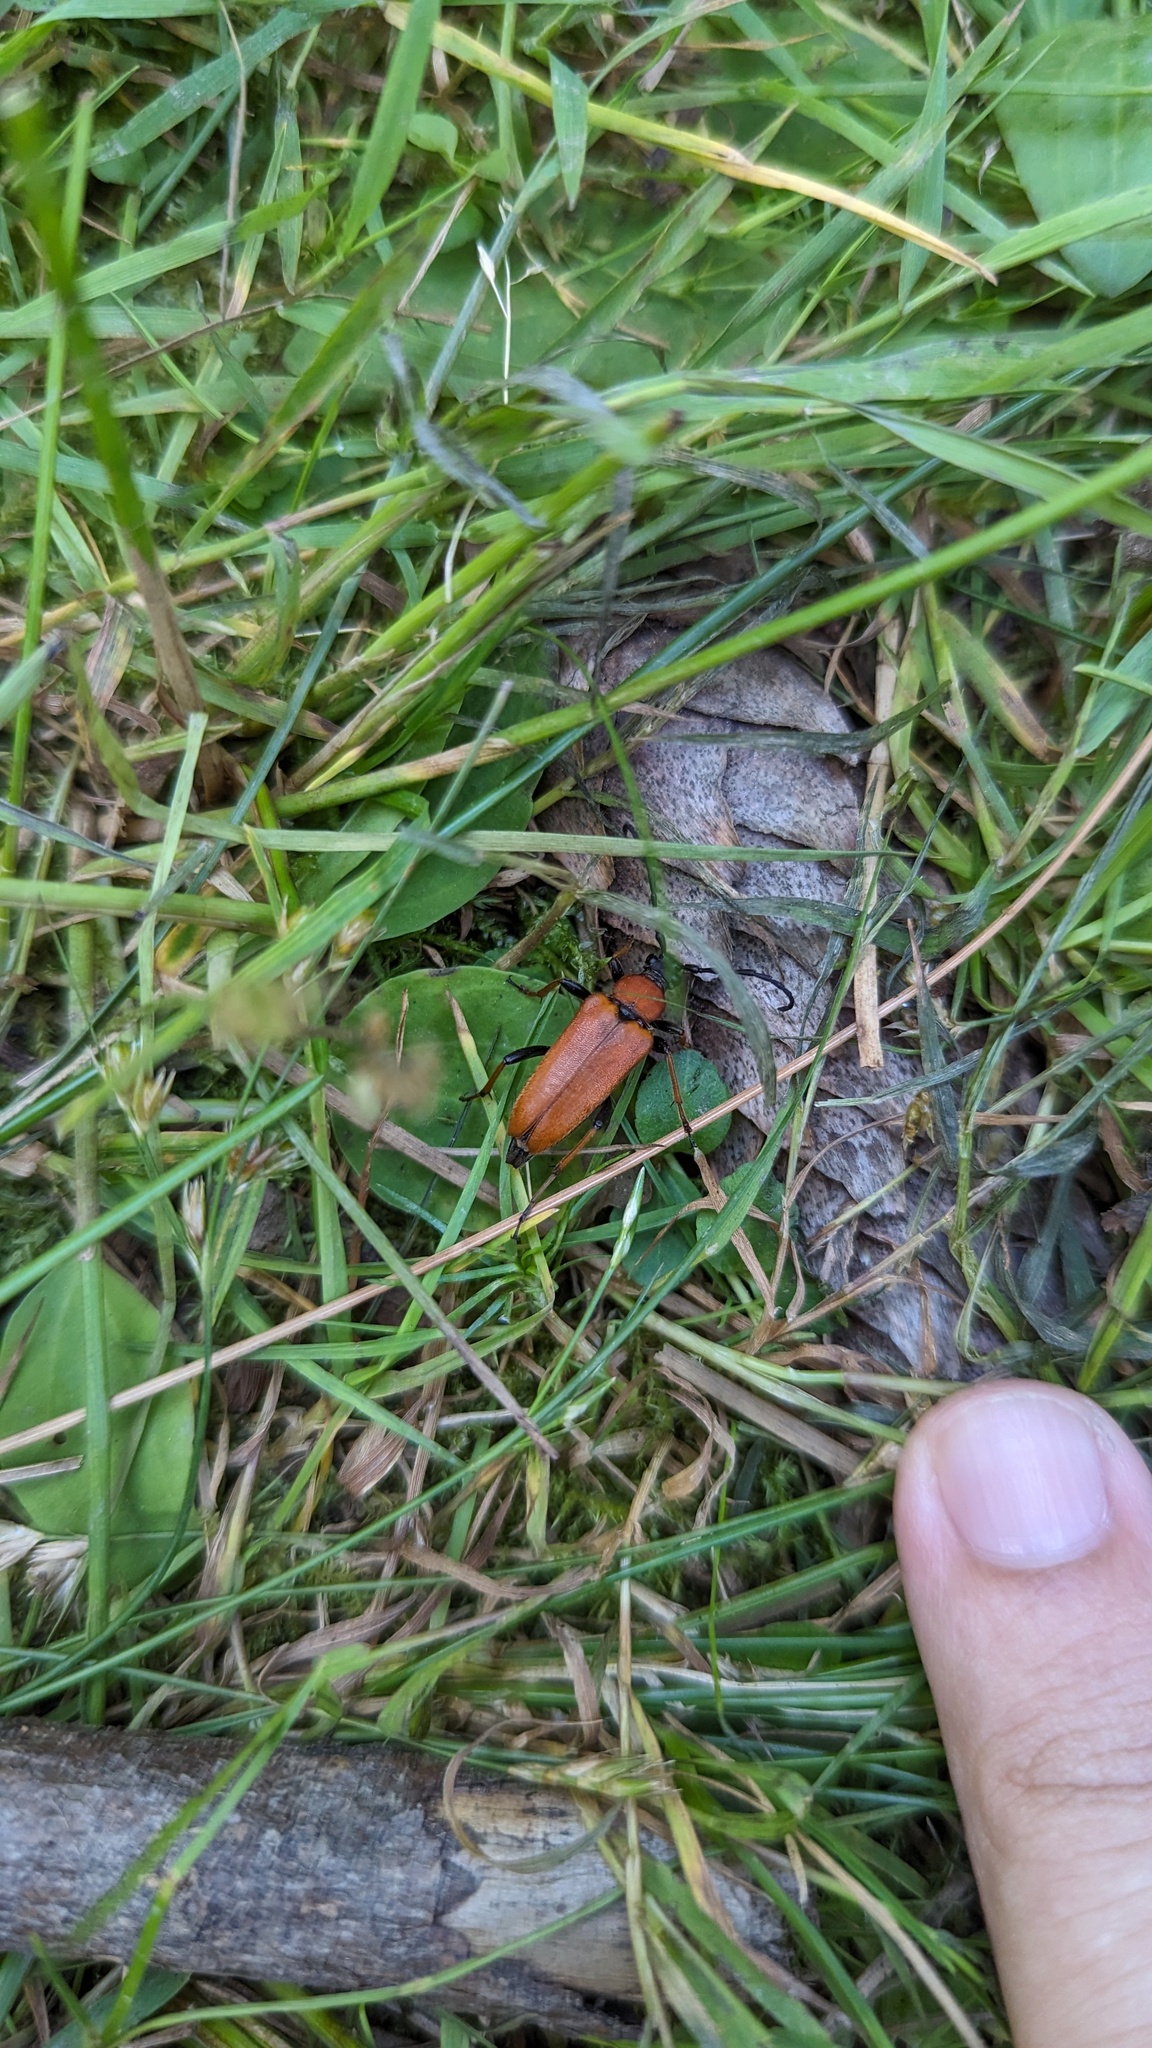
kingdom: Animalia
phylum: Arthropoda
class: Insecta
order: Coleoptera
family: Cerambycidae
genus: Stictoleptura
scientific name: Stictoleptura rubra
